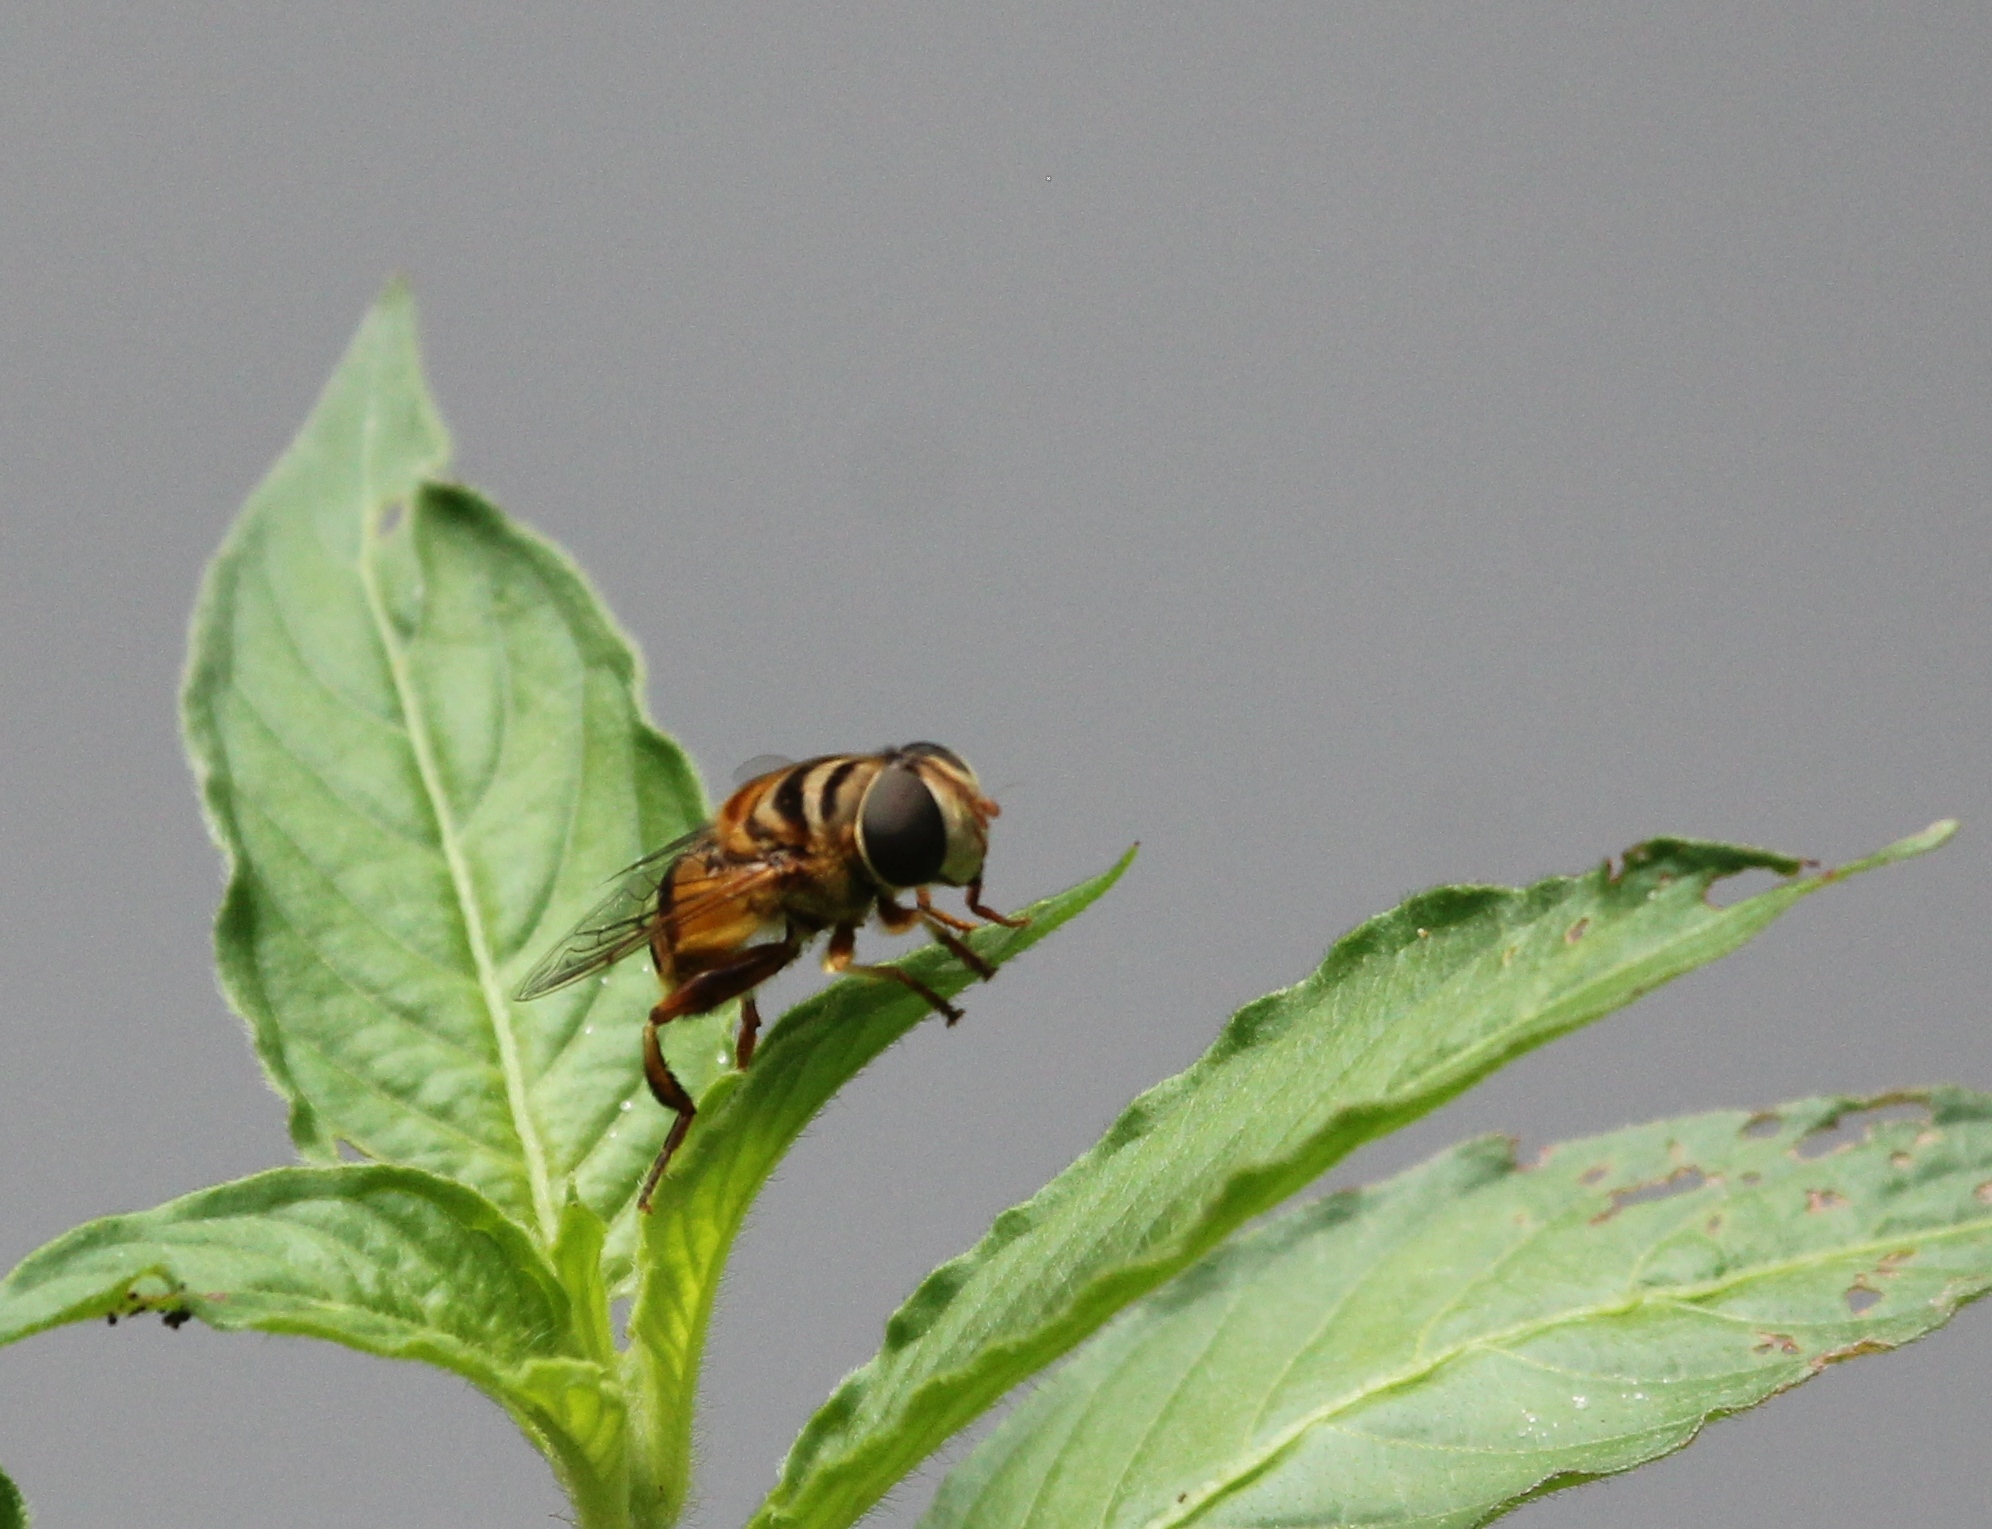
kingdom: Animalia
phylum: Arthropoda
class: Insecta
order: Diptera
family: Syrphidae
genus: Palpada
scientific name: Palpada vinetorum
